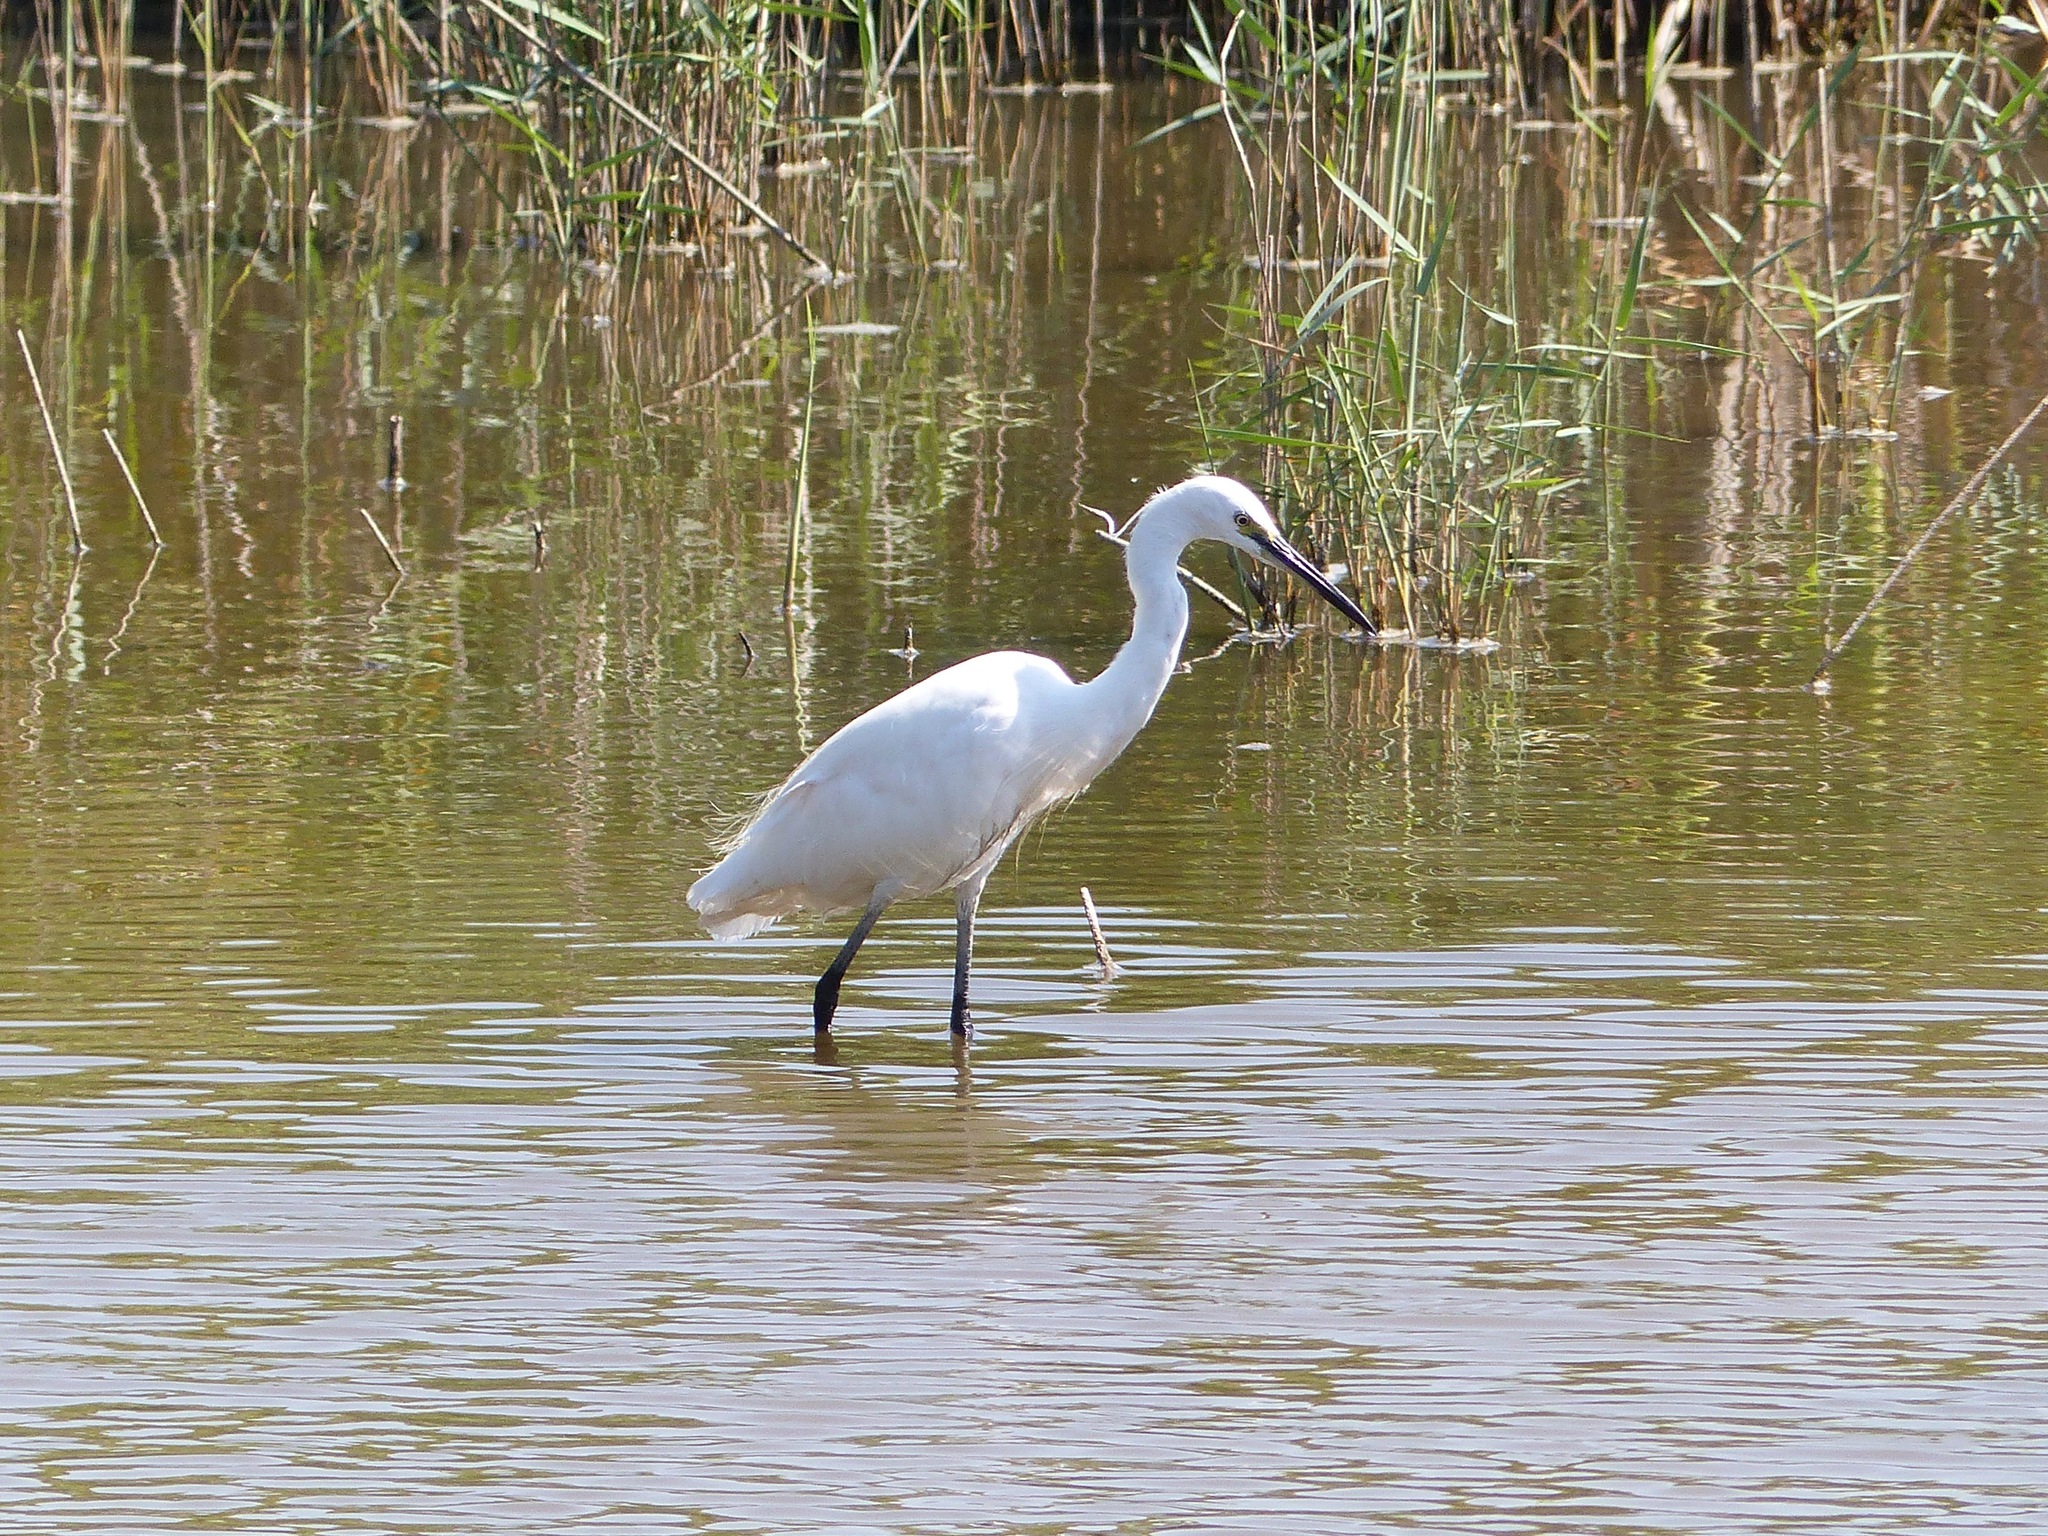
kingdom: Animalia
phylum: Chordata
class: Aves
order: Pelecaniformes
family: Ardeidae
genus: Egretta
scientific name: Egretta garzetta
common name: Little egret
